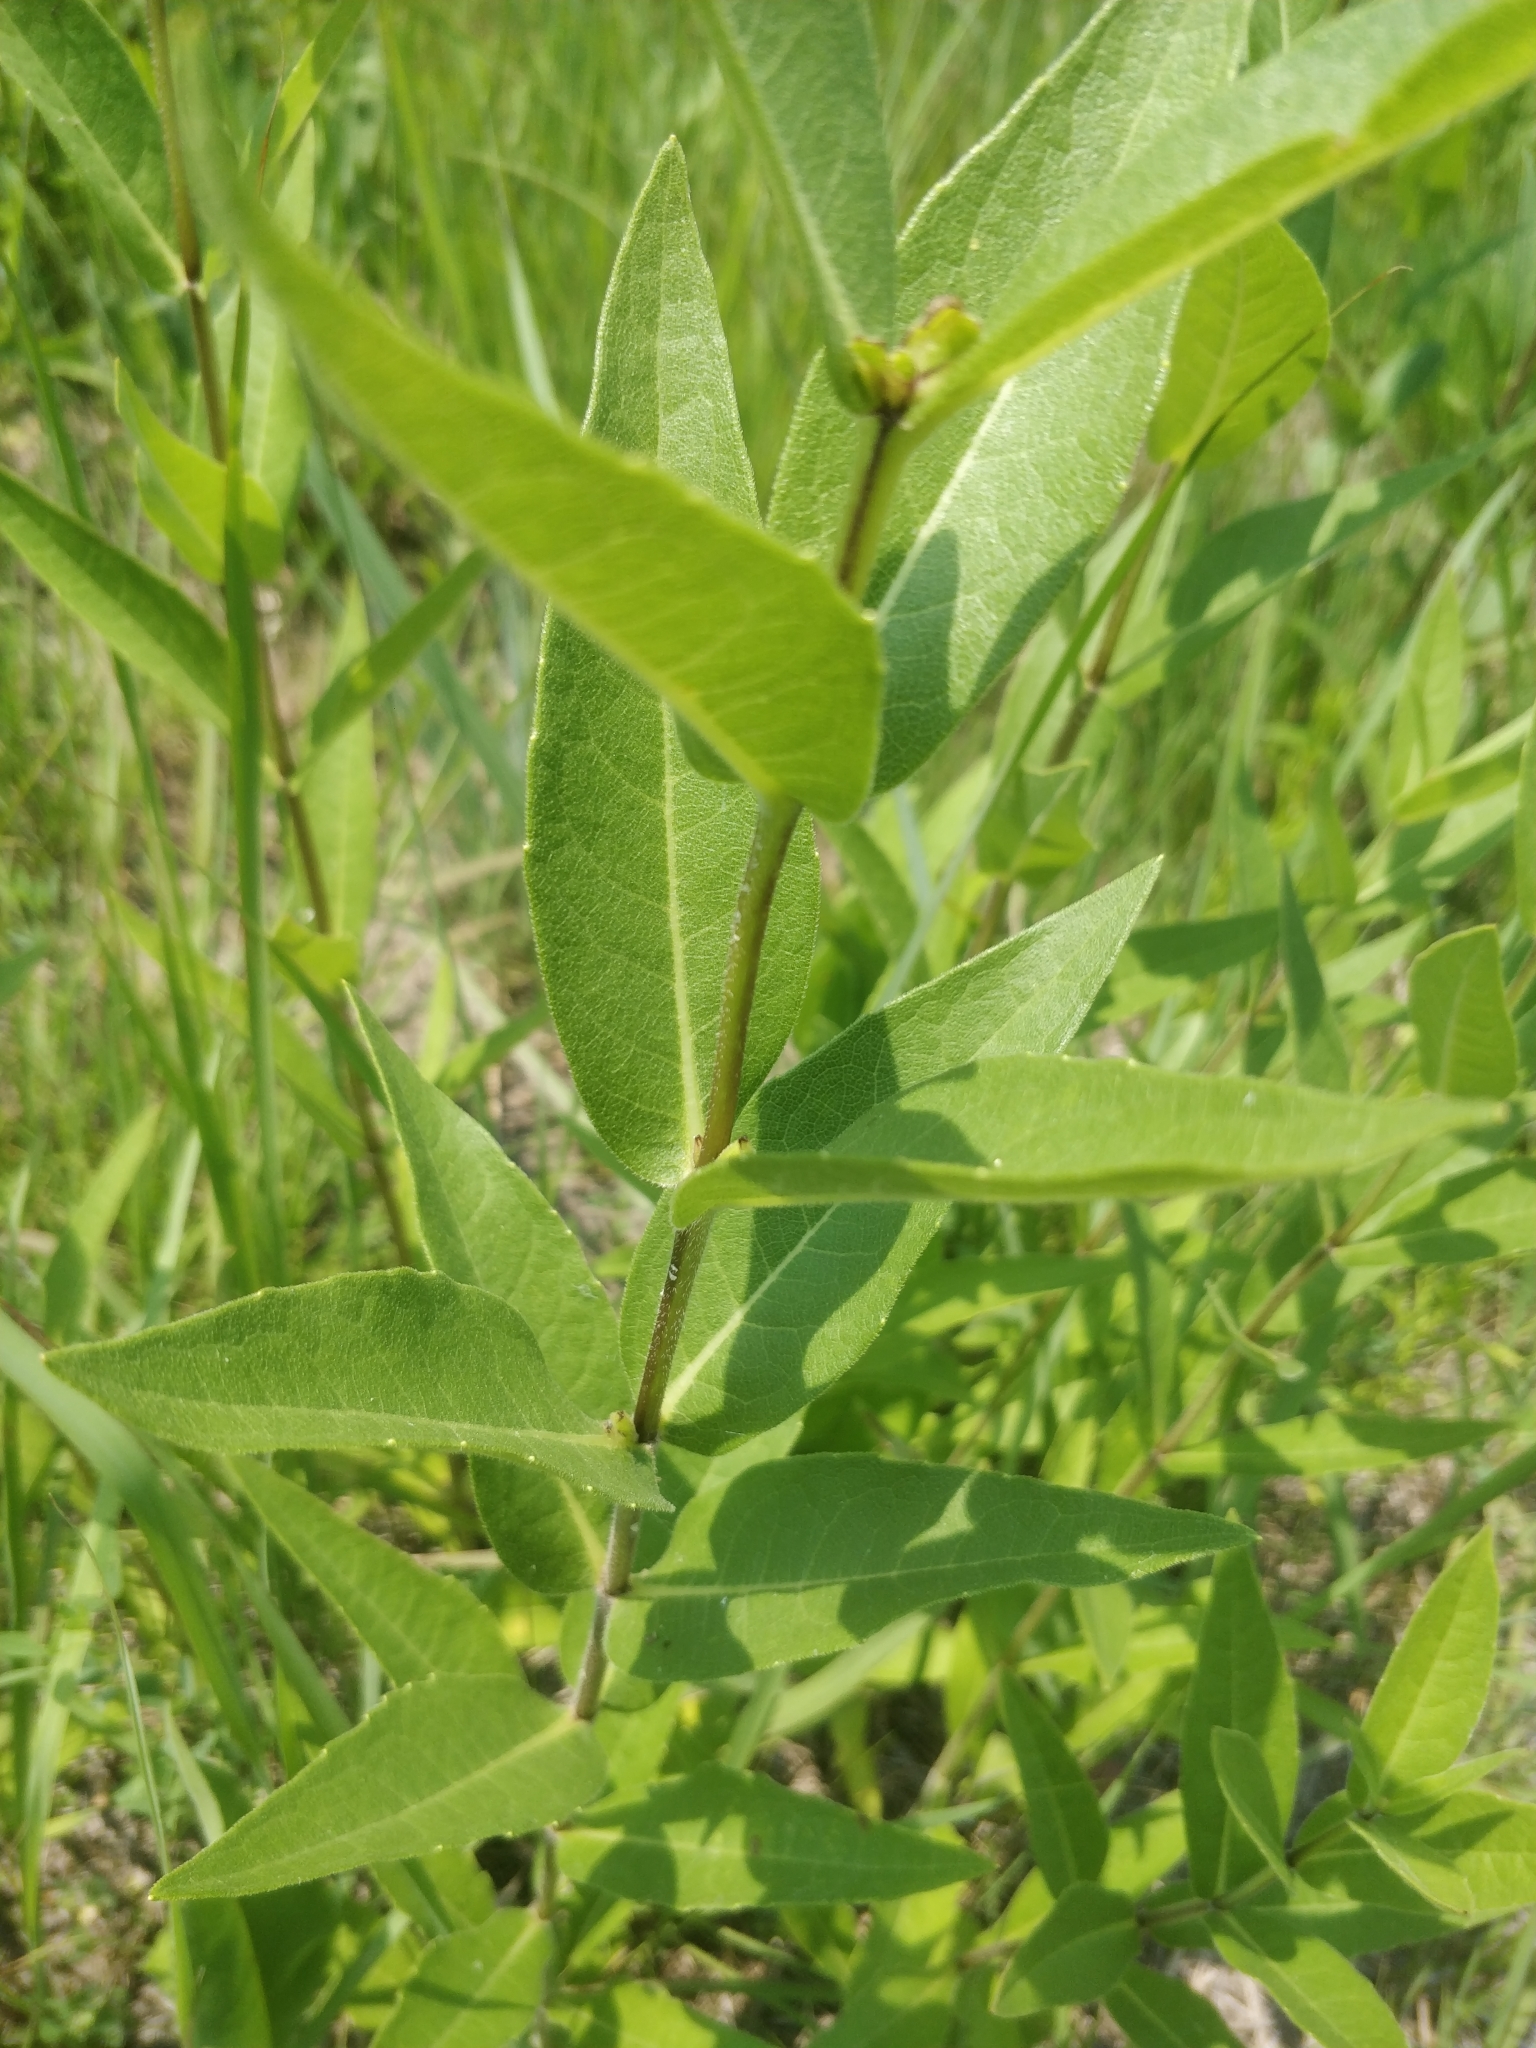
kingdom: Plantae
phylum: Tracheophyta
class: Magnoliopsida
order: Asterales
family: Asteraceae
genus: Silphium
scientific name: Silphium integrifolium
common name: Whole-leaf rosinweed
